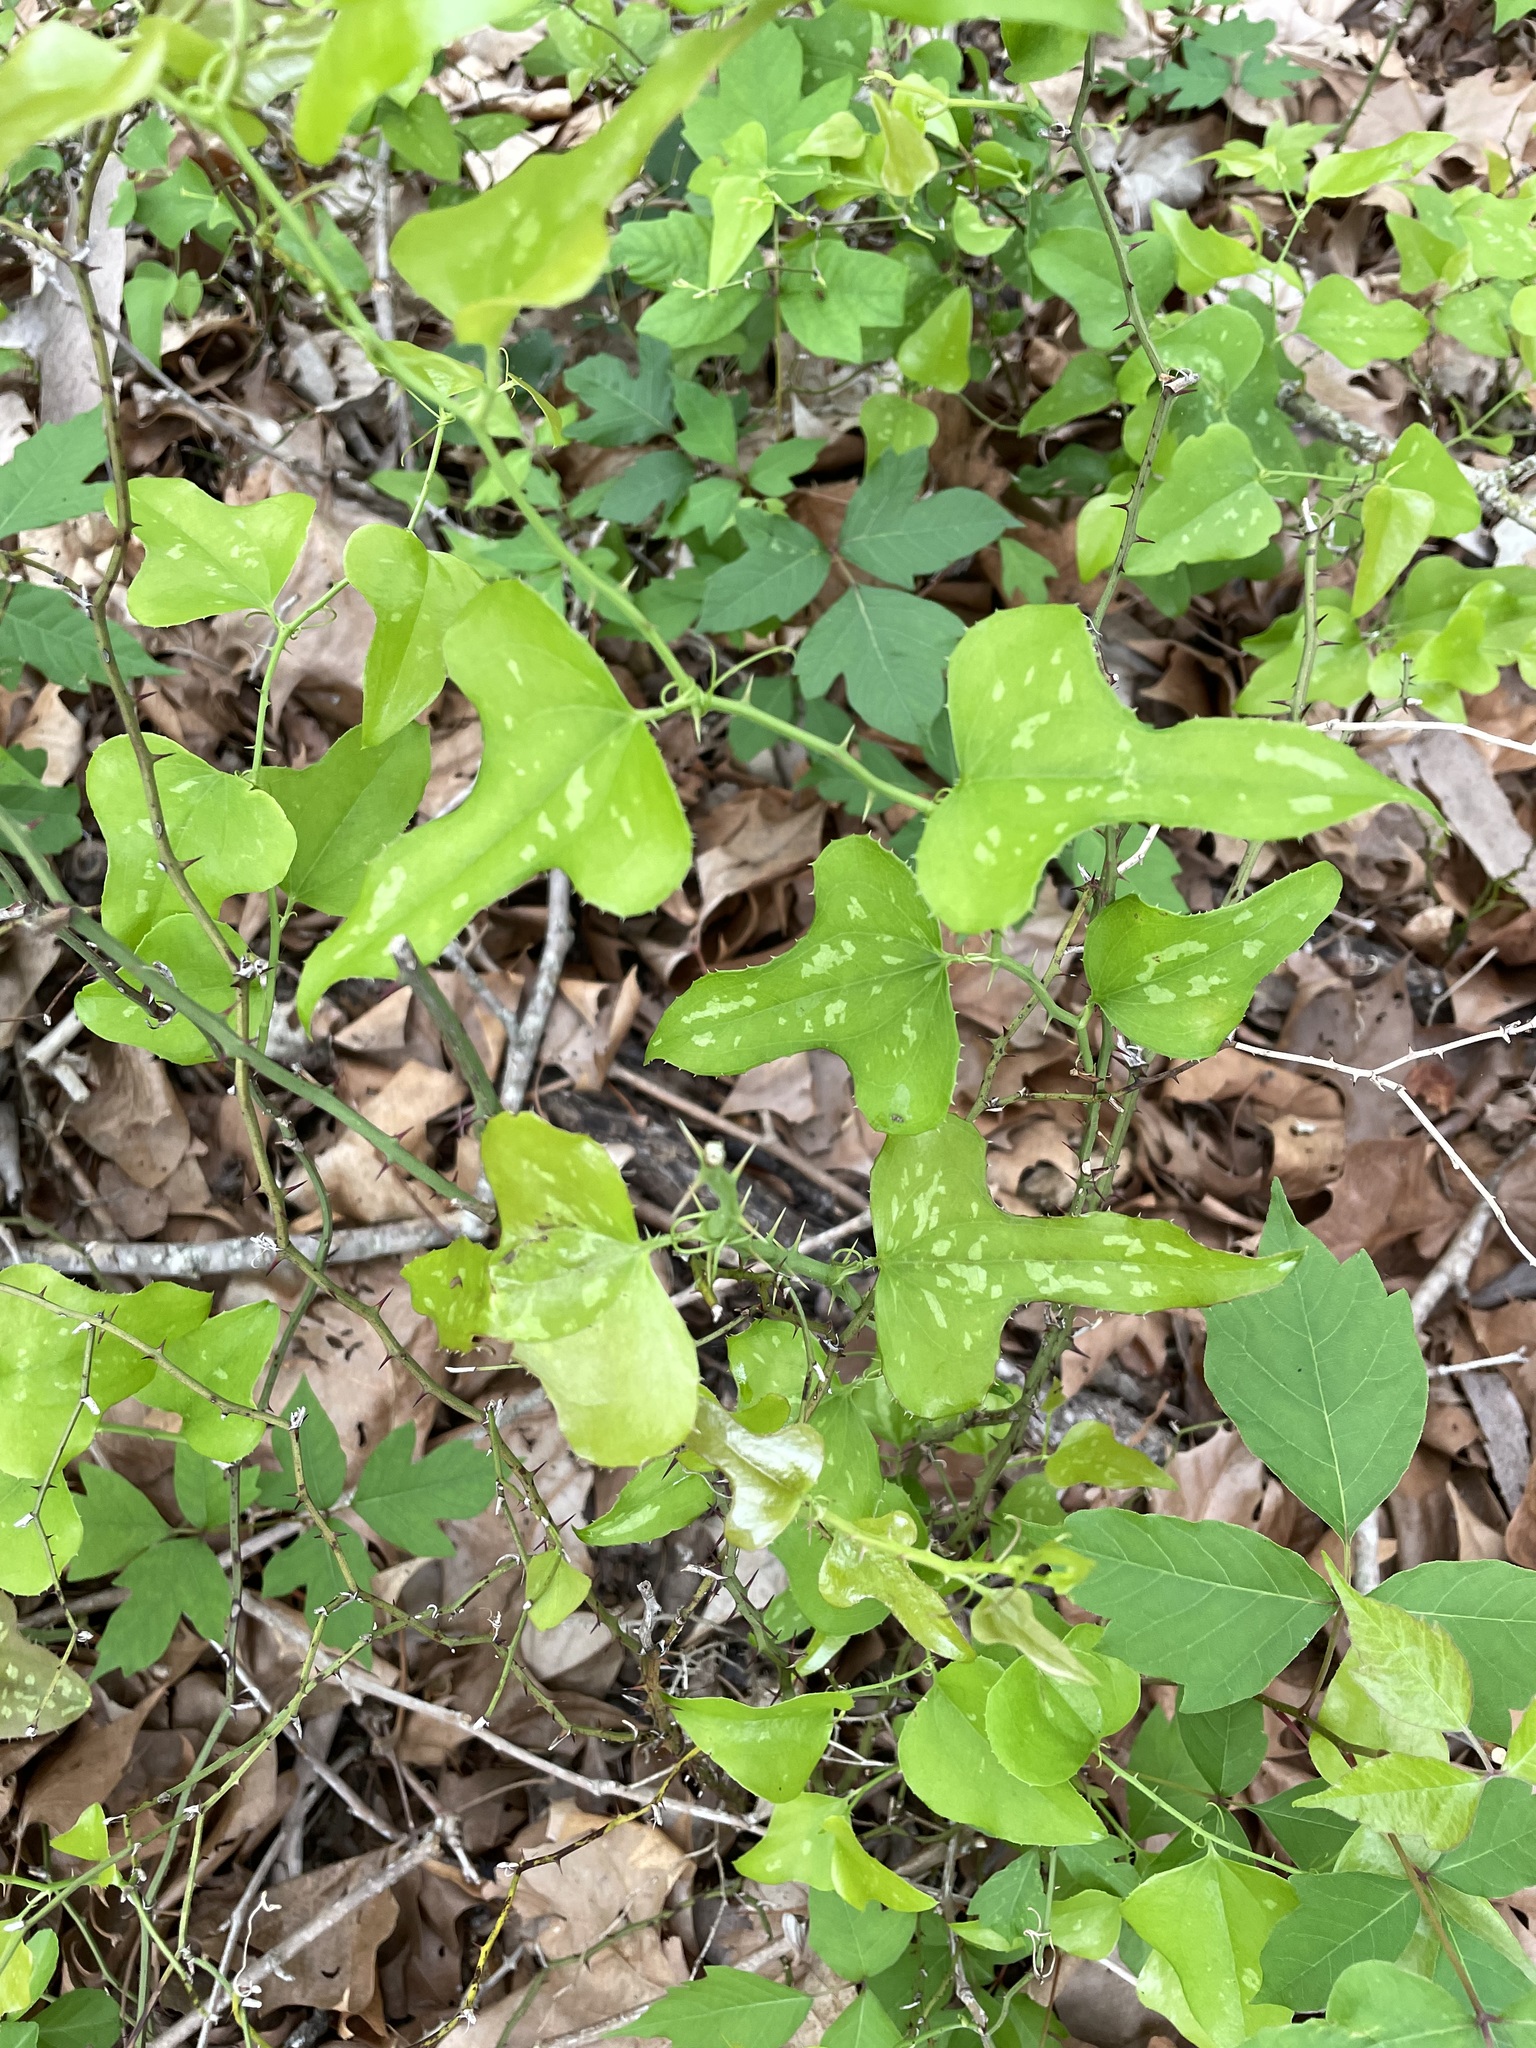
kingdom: Plantae
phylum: Tracheophyta
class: Liliopsida
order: Liliales
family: Smilacaceae
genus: Smilax
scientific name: Smilax bona-nox
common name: Catbrier
